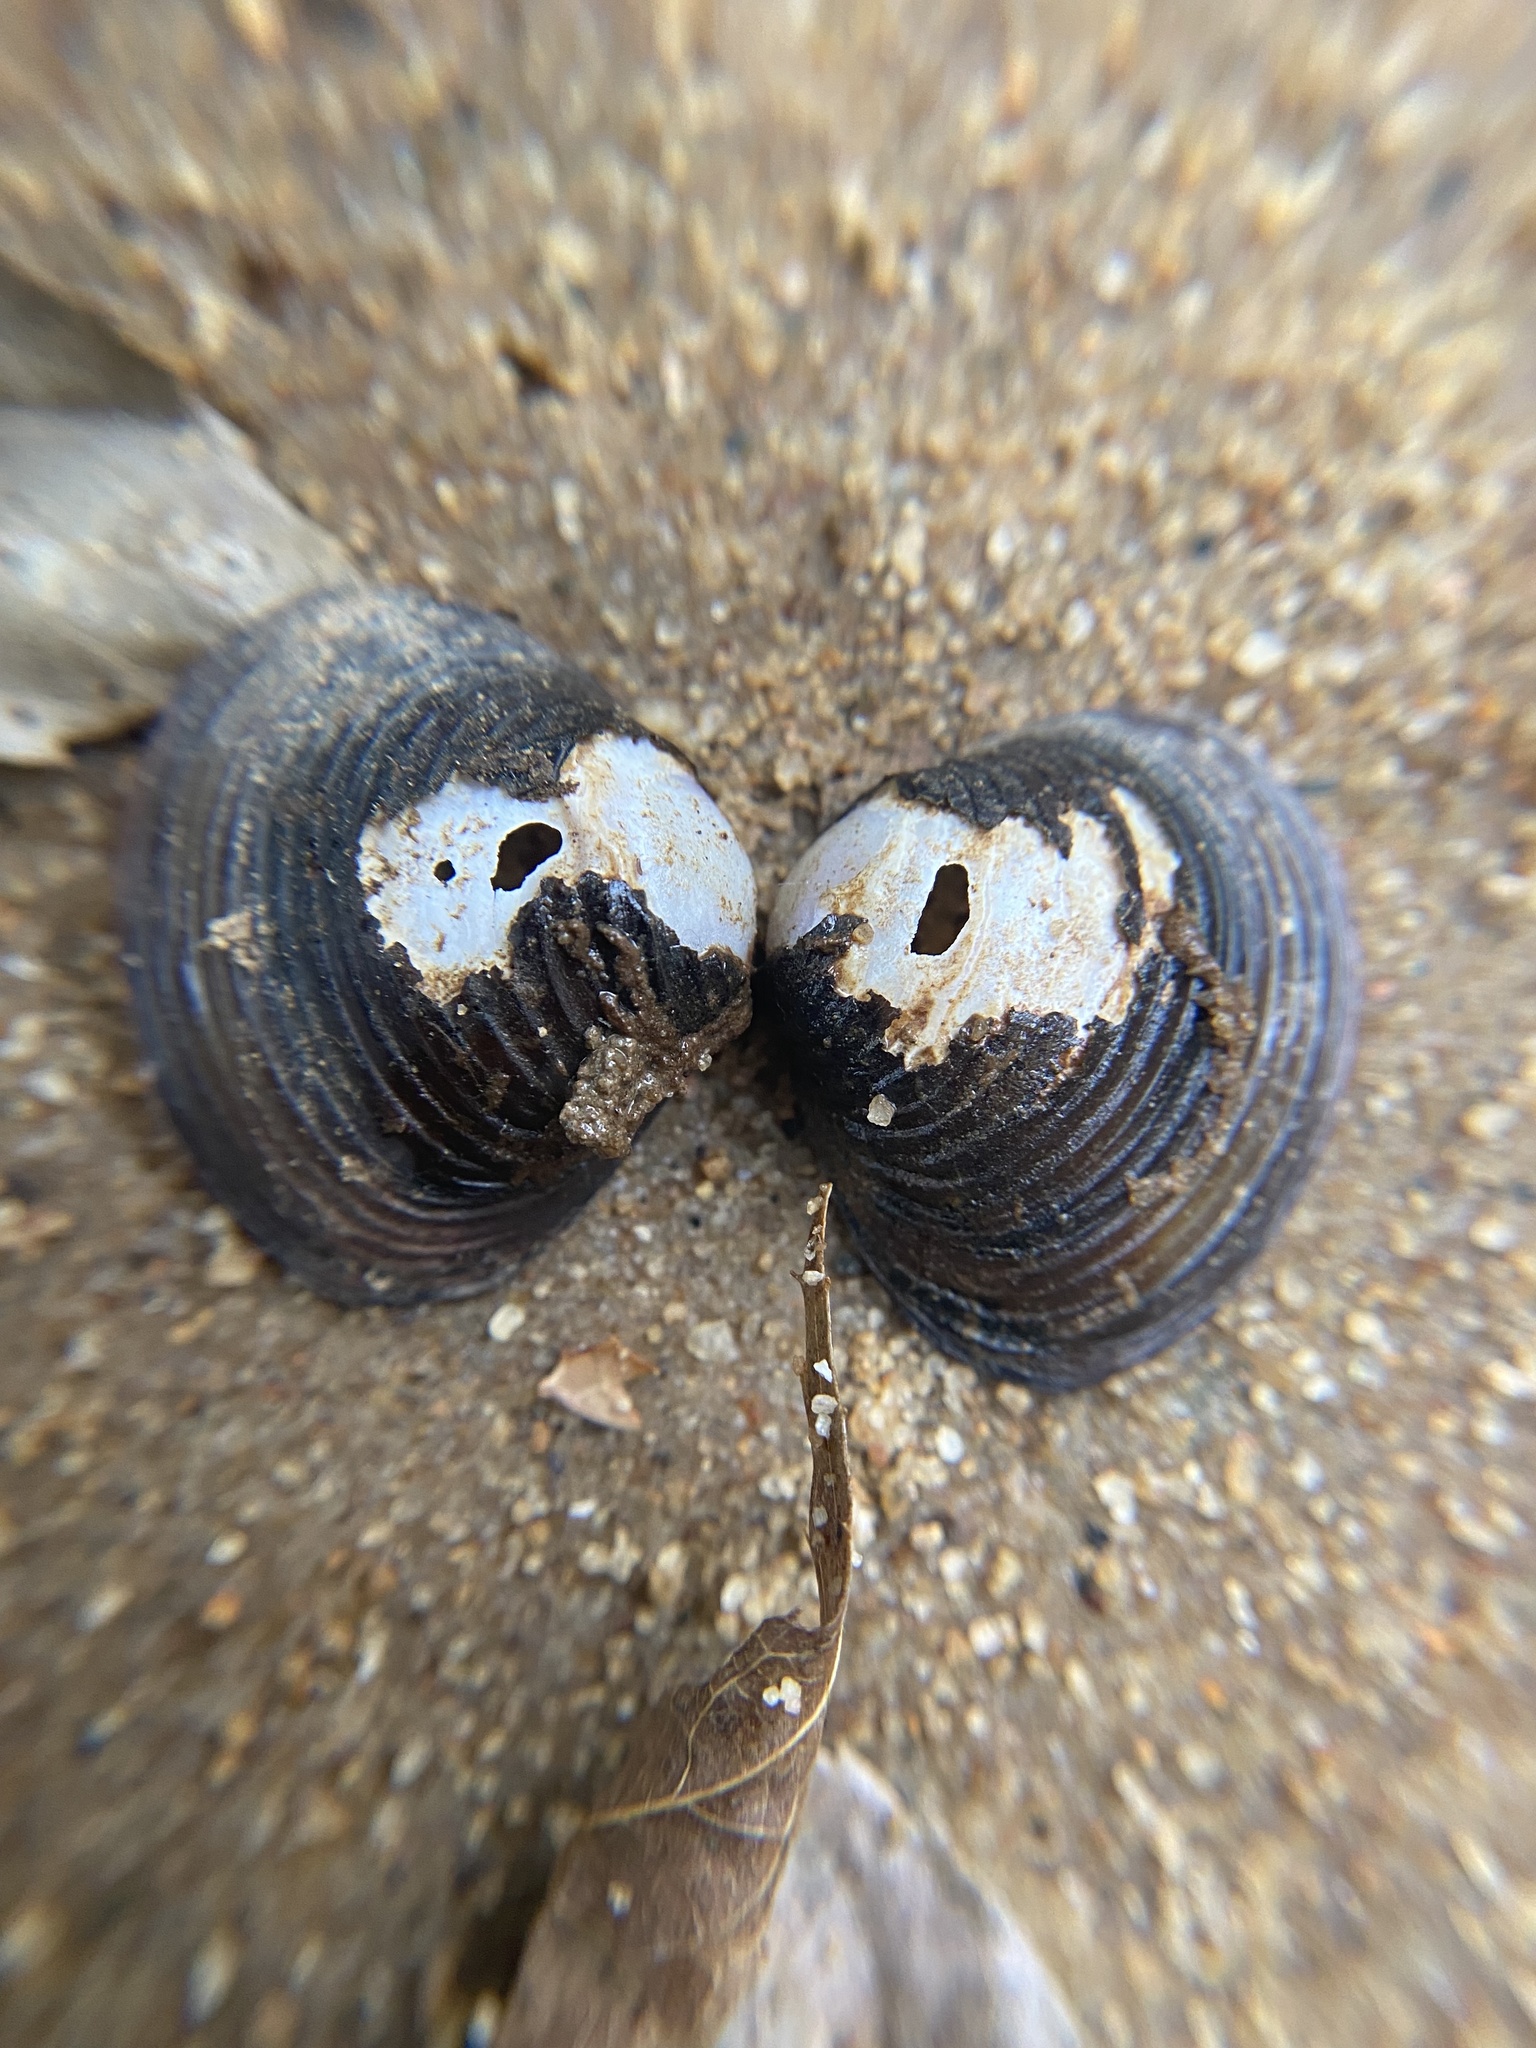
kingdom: Animalia
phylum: Mollusca
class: Bivalvia
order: Venerida
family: Cyrenidae
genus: Corbicula
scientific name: Corbicula fluminea
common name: Asian clam
